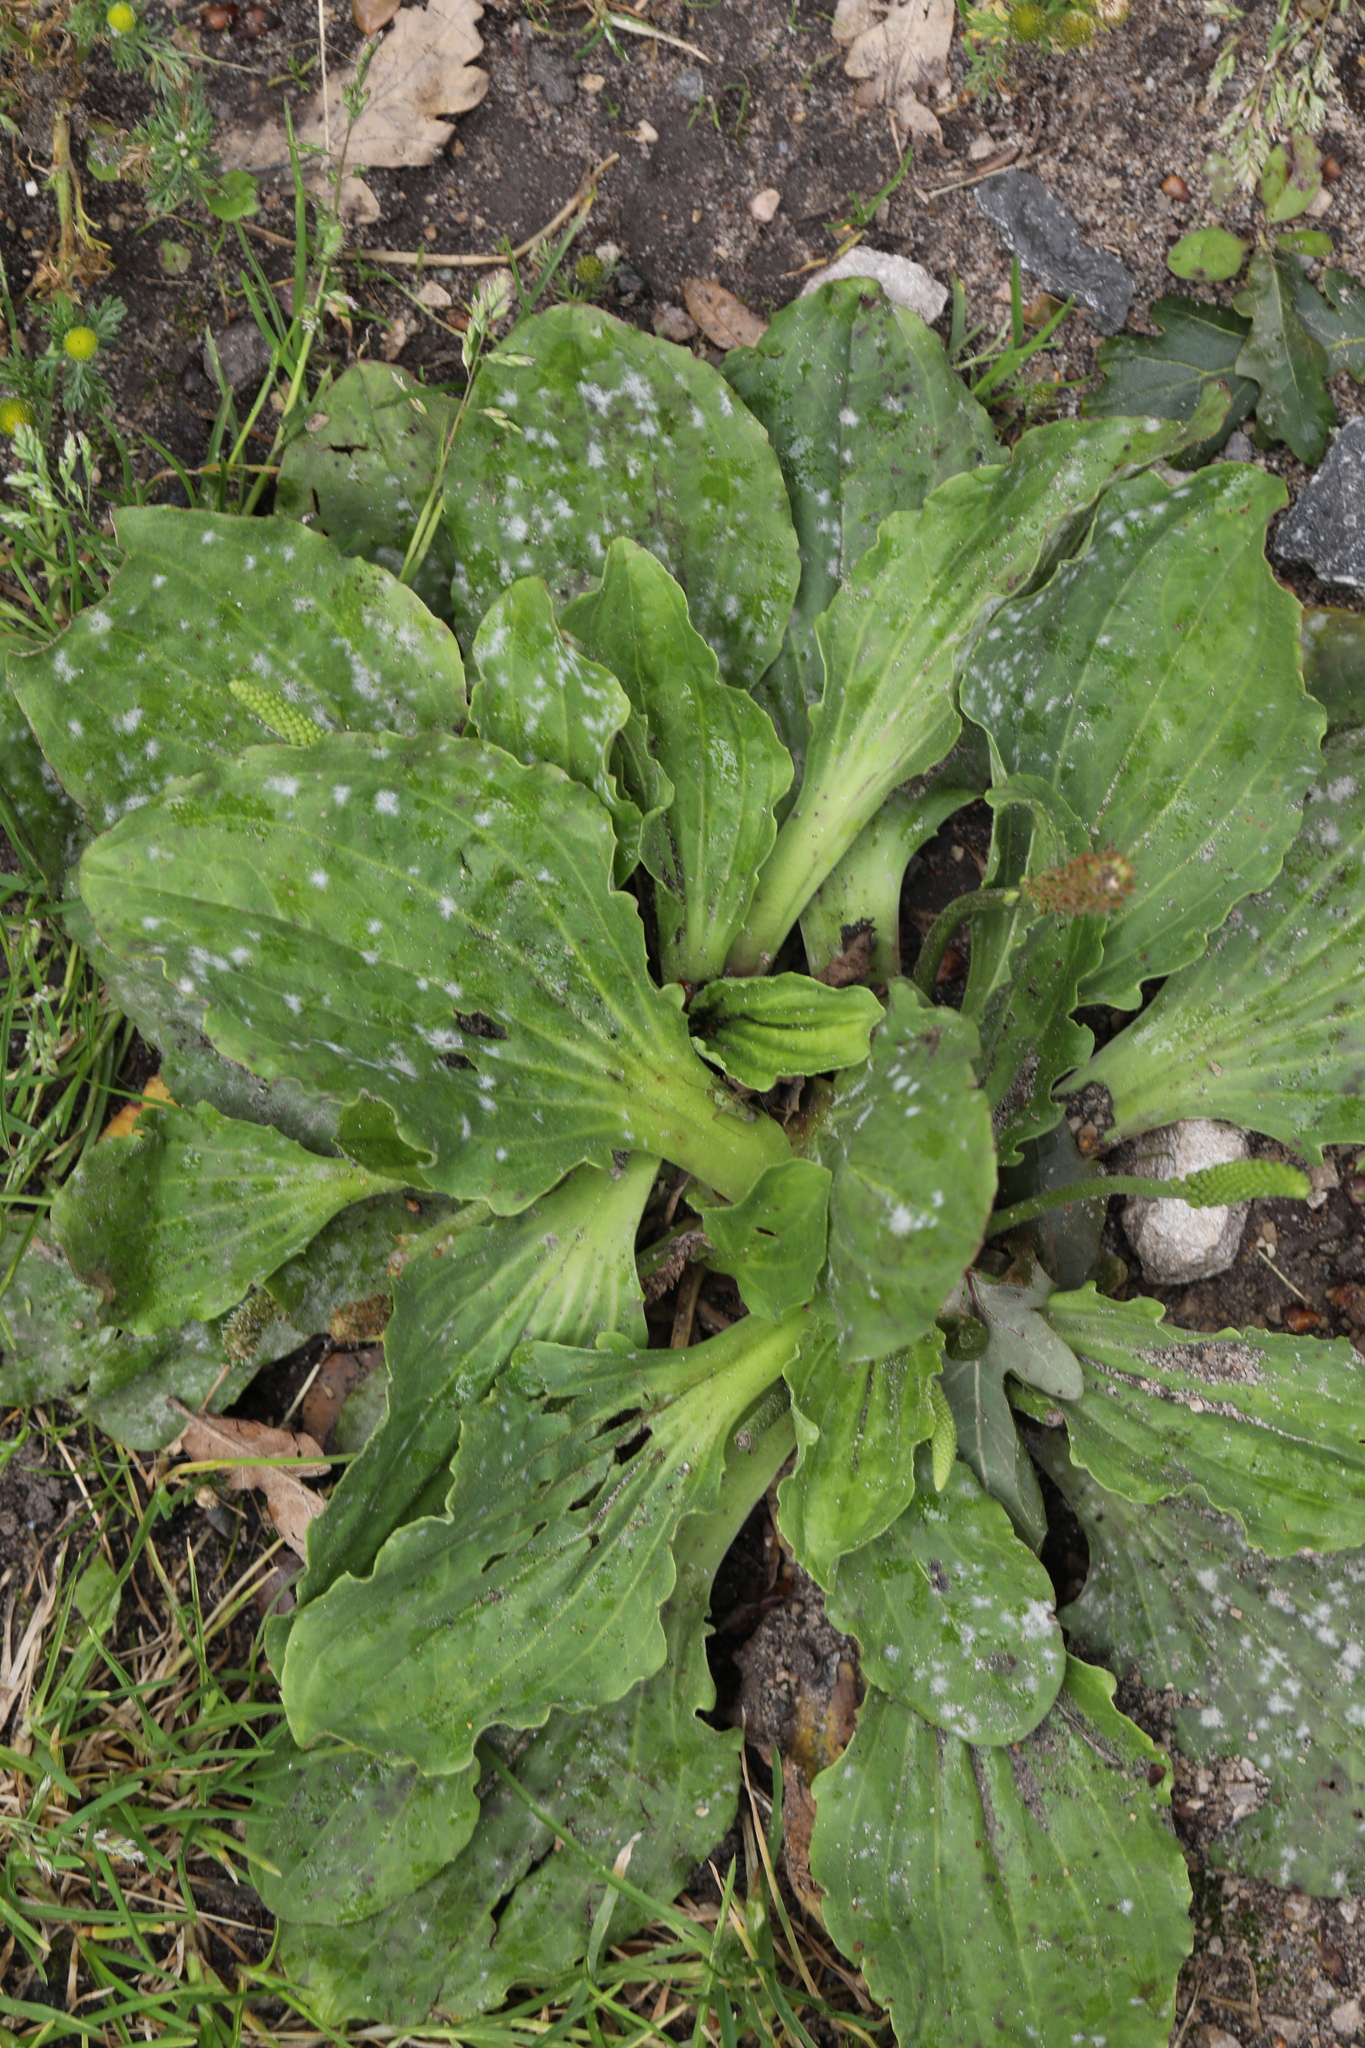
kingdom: Plantae
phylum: Tracheophyta
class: Magnoliopsida
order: Lamiales
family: Plantaginaceae
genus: Plantago
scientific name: Plantago major
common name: Common plantain
